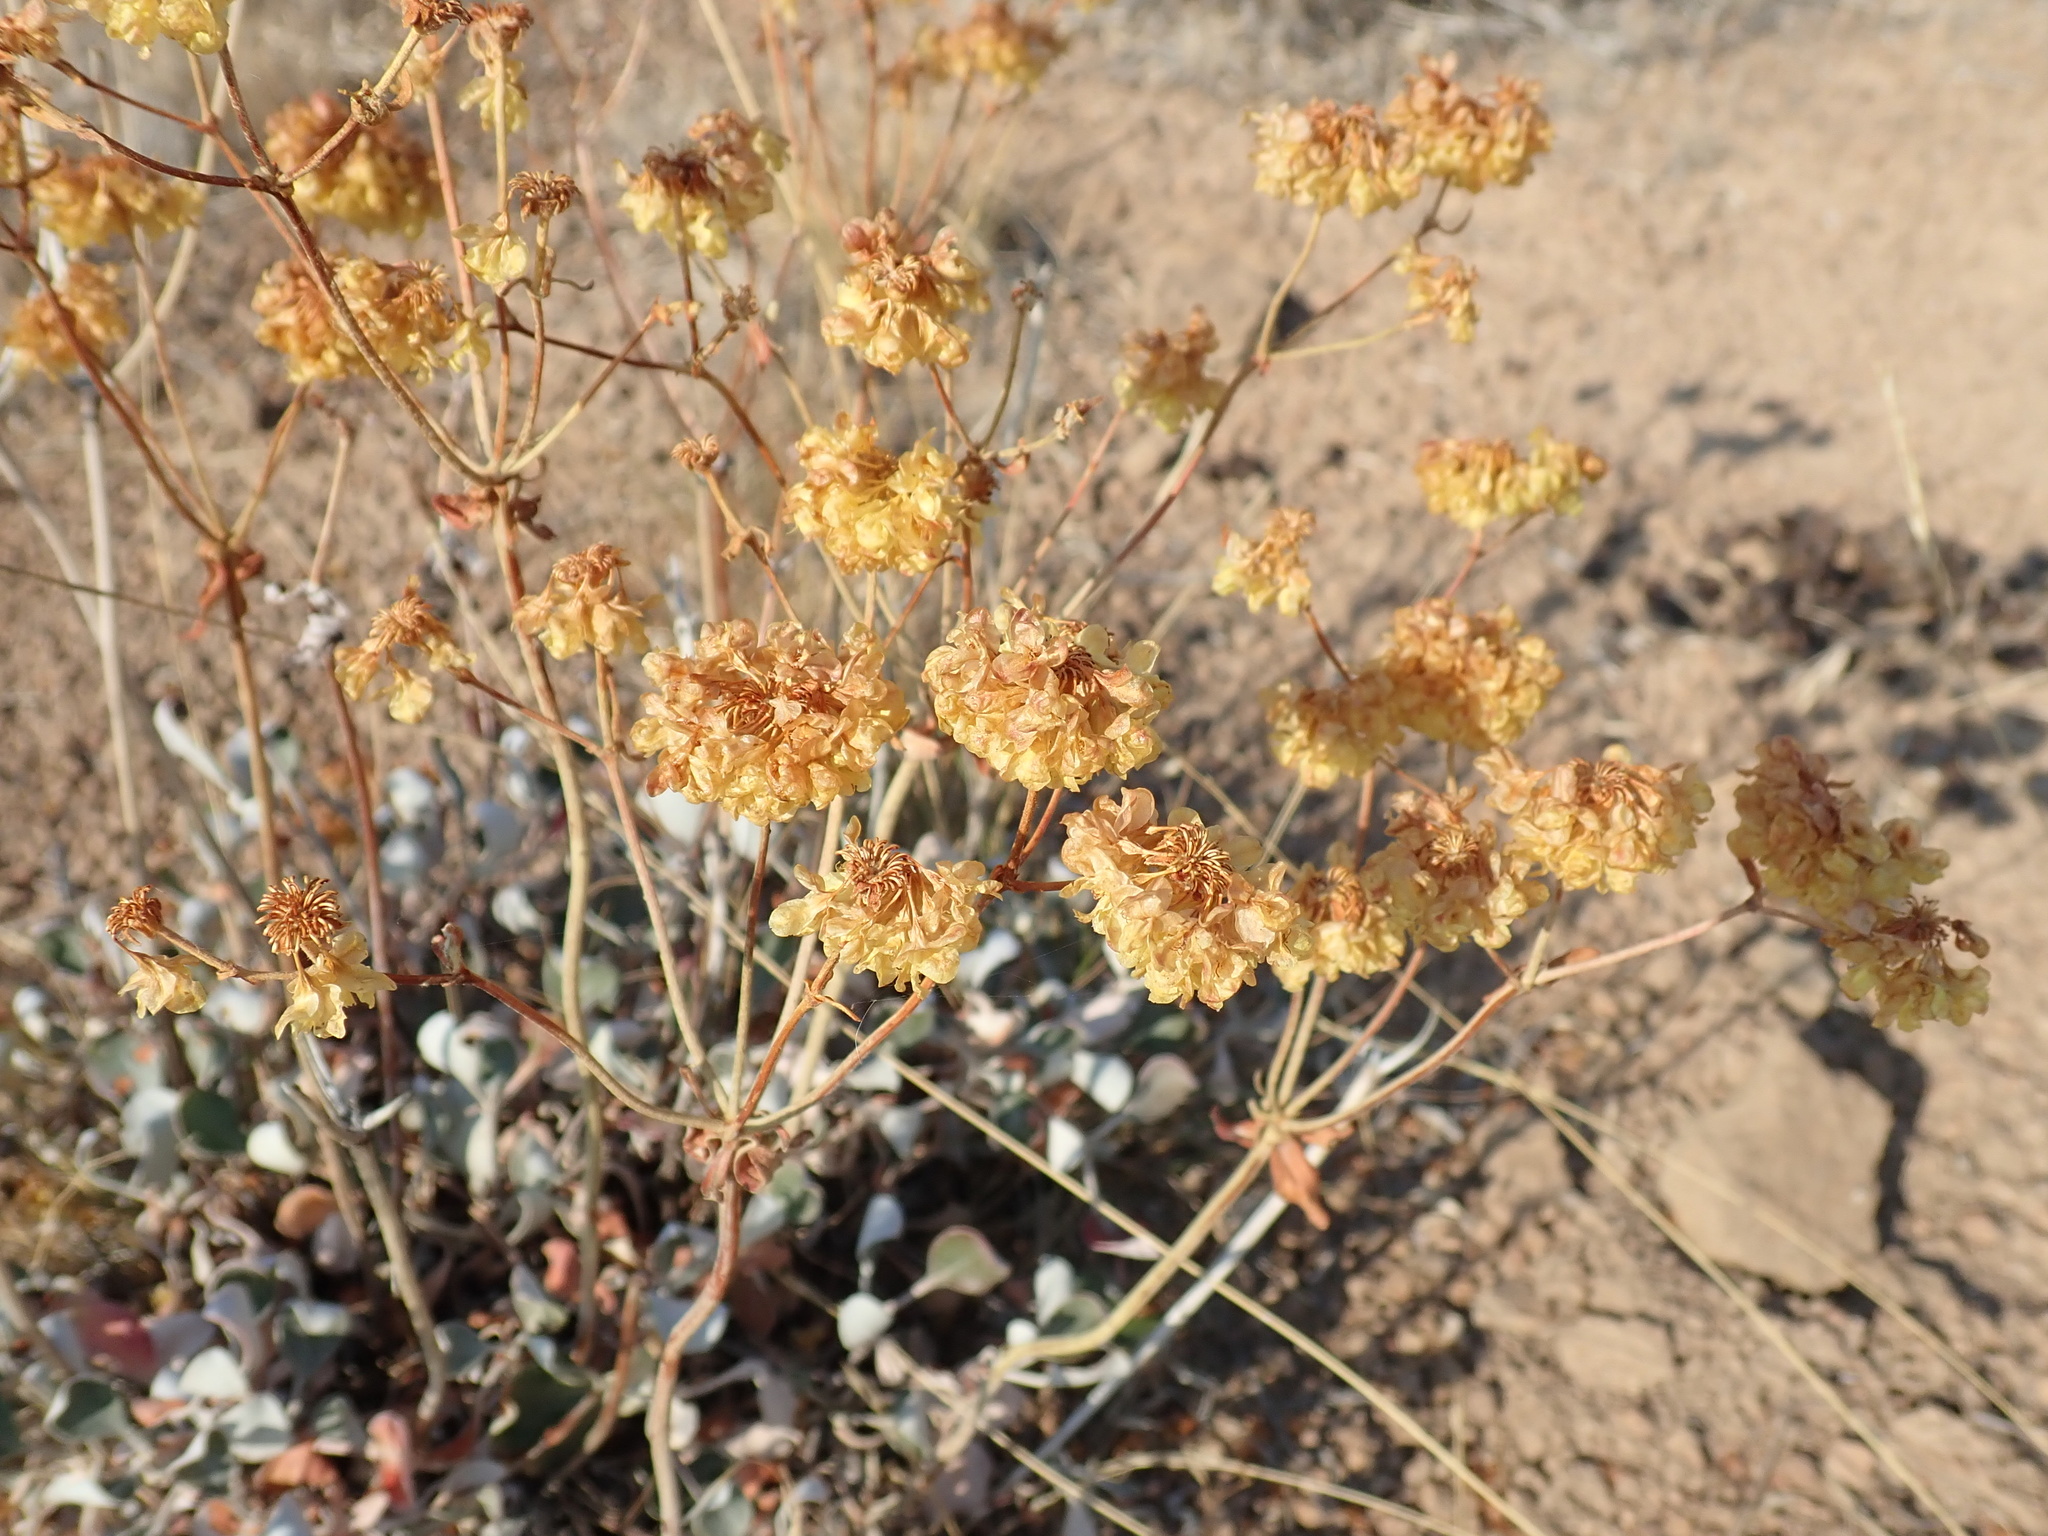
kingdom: Plantae
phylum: Tracheophyta
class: Magnoliopsida
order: Caryophyllales
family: Polygonaceae
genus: Eriogonum
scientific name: Eriogonum umbellatum
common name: Sulfur-buckwheat
